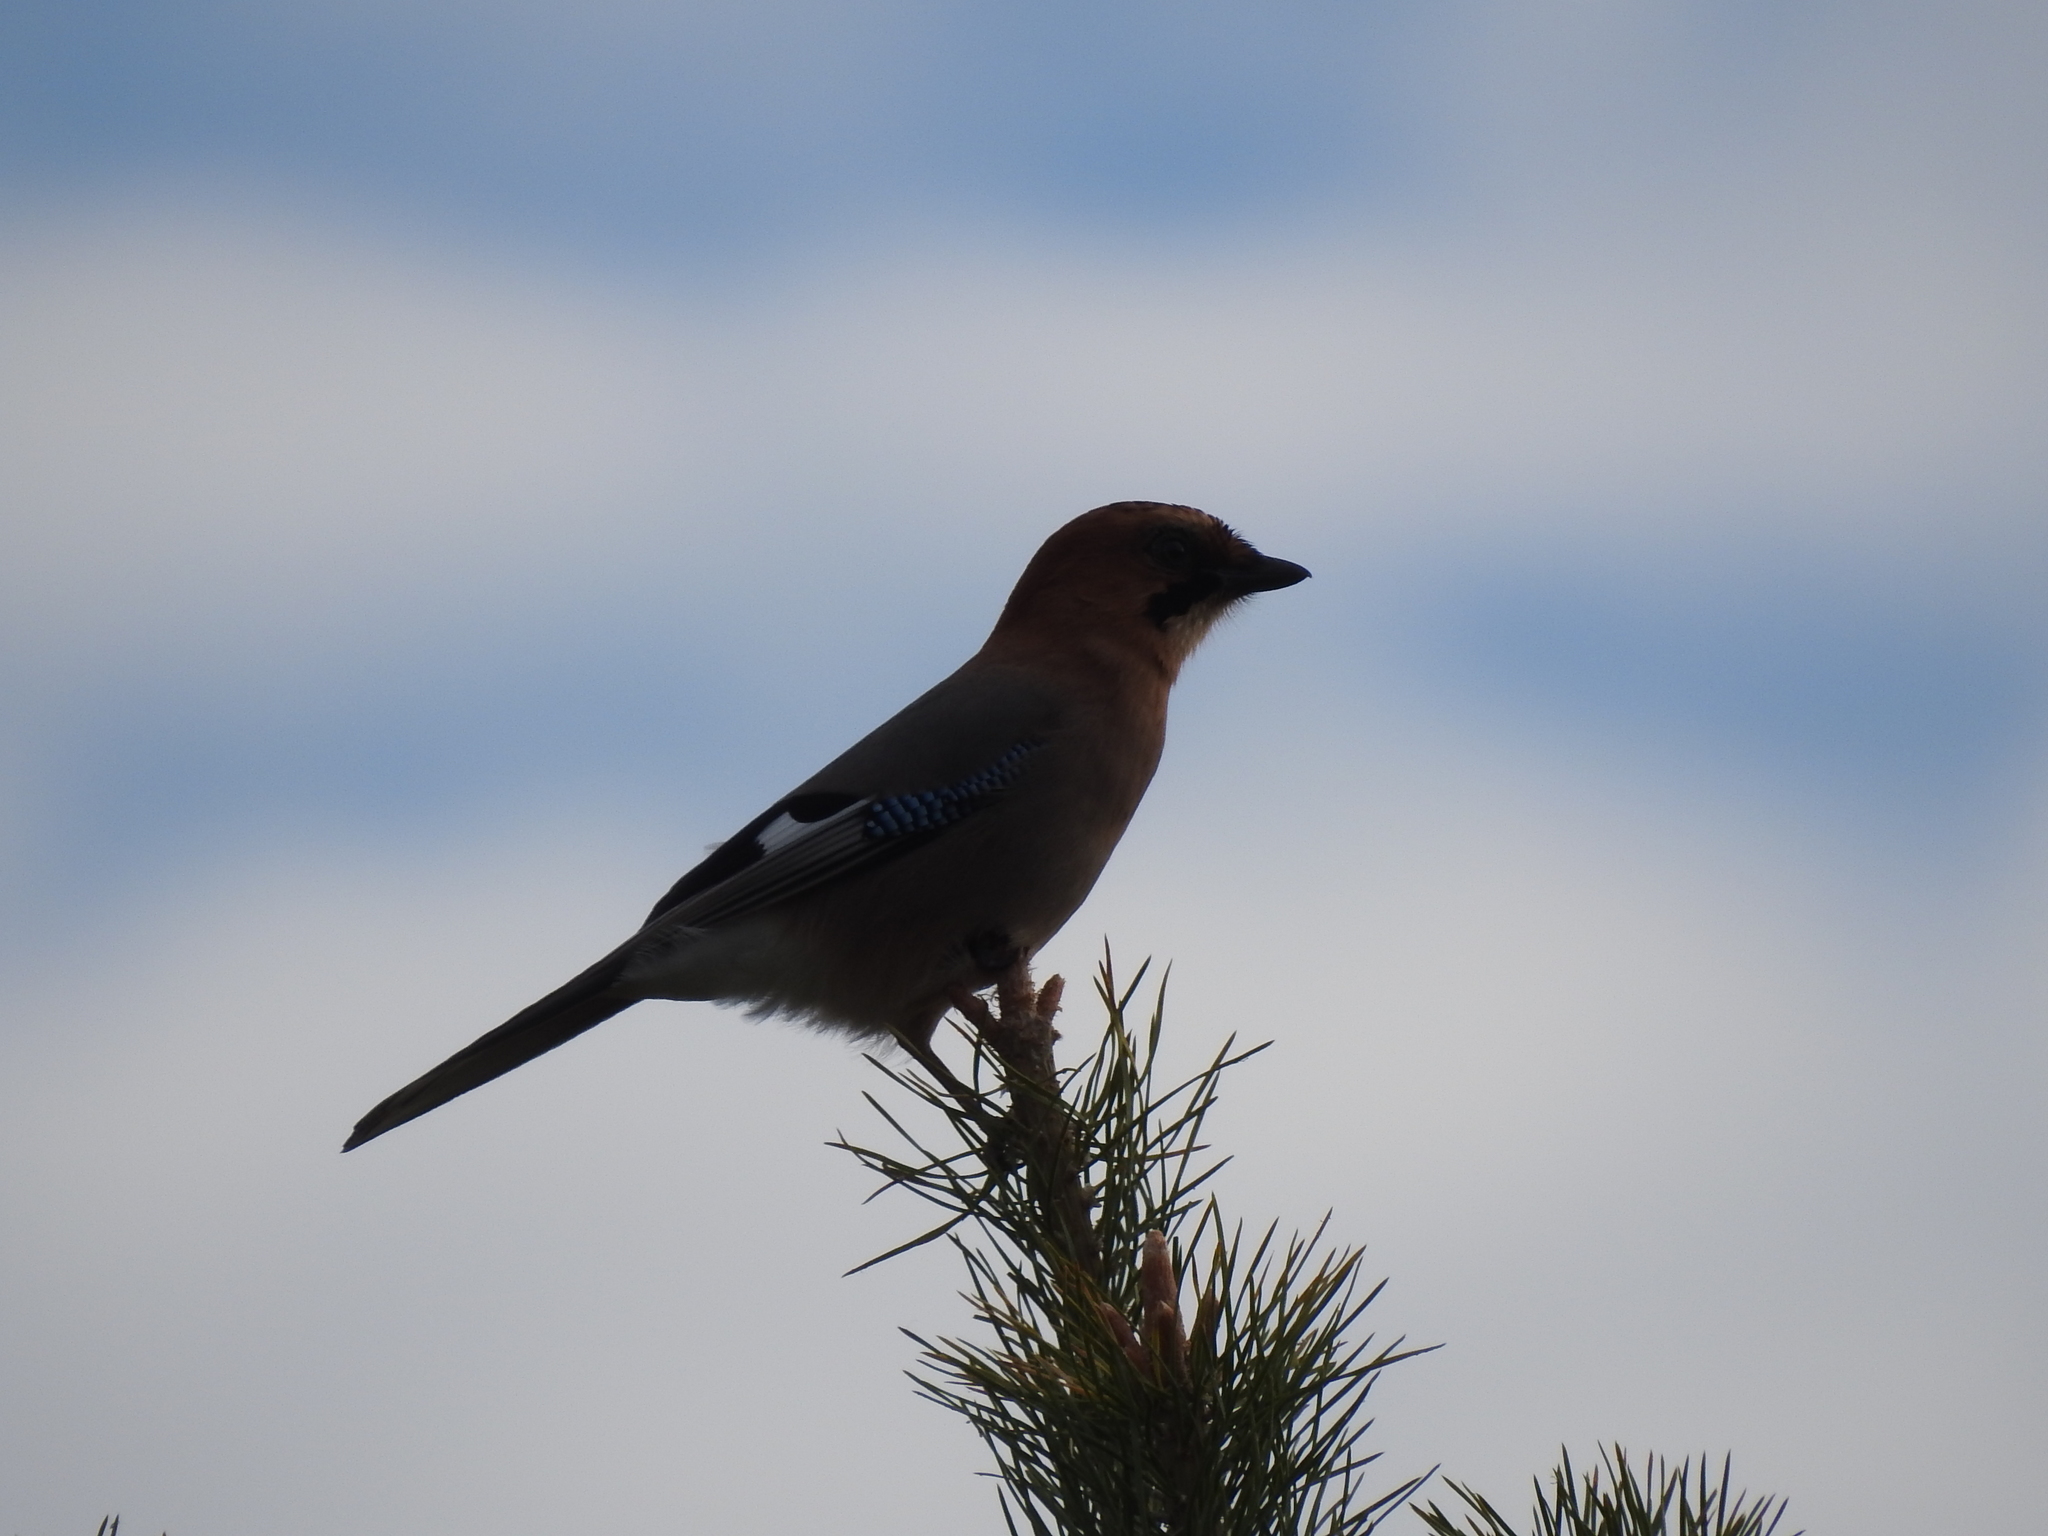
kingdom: Animalia
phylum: Chordata
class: Aves
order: Passeriformes
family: Corvidae
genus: Garrulus
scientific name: Garrulus glandarius
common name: Eurasian jay
